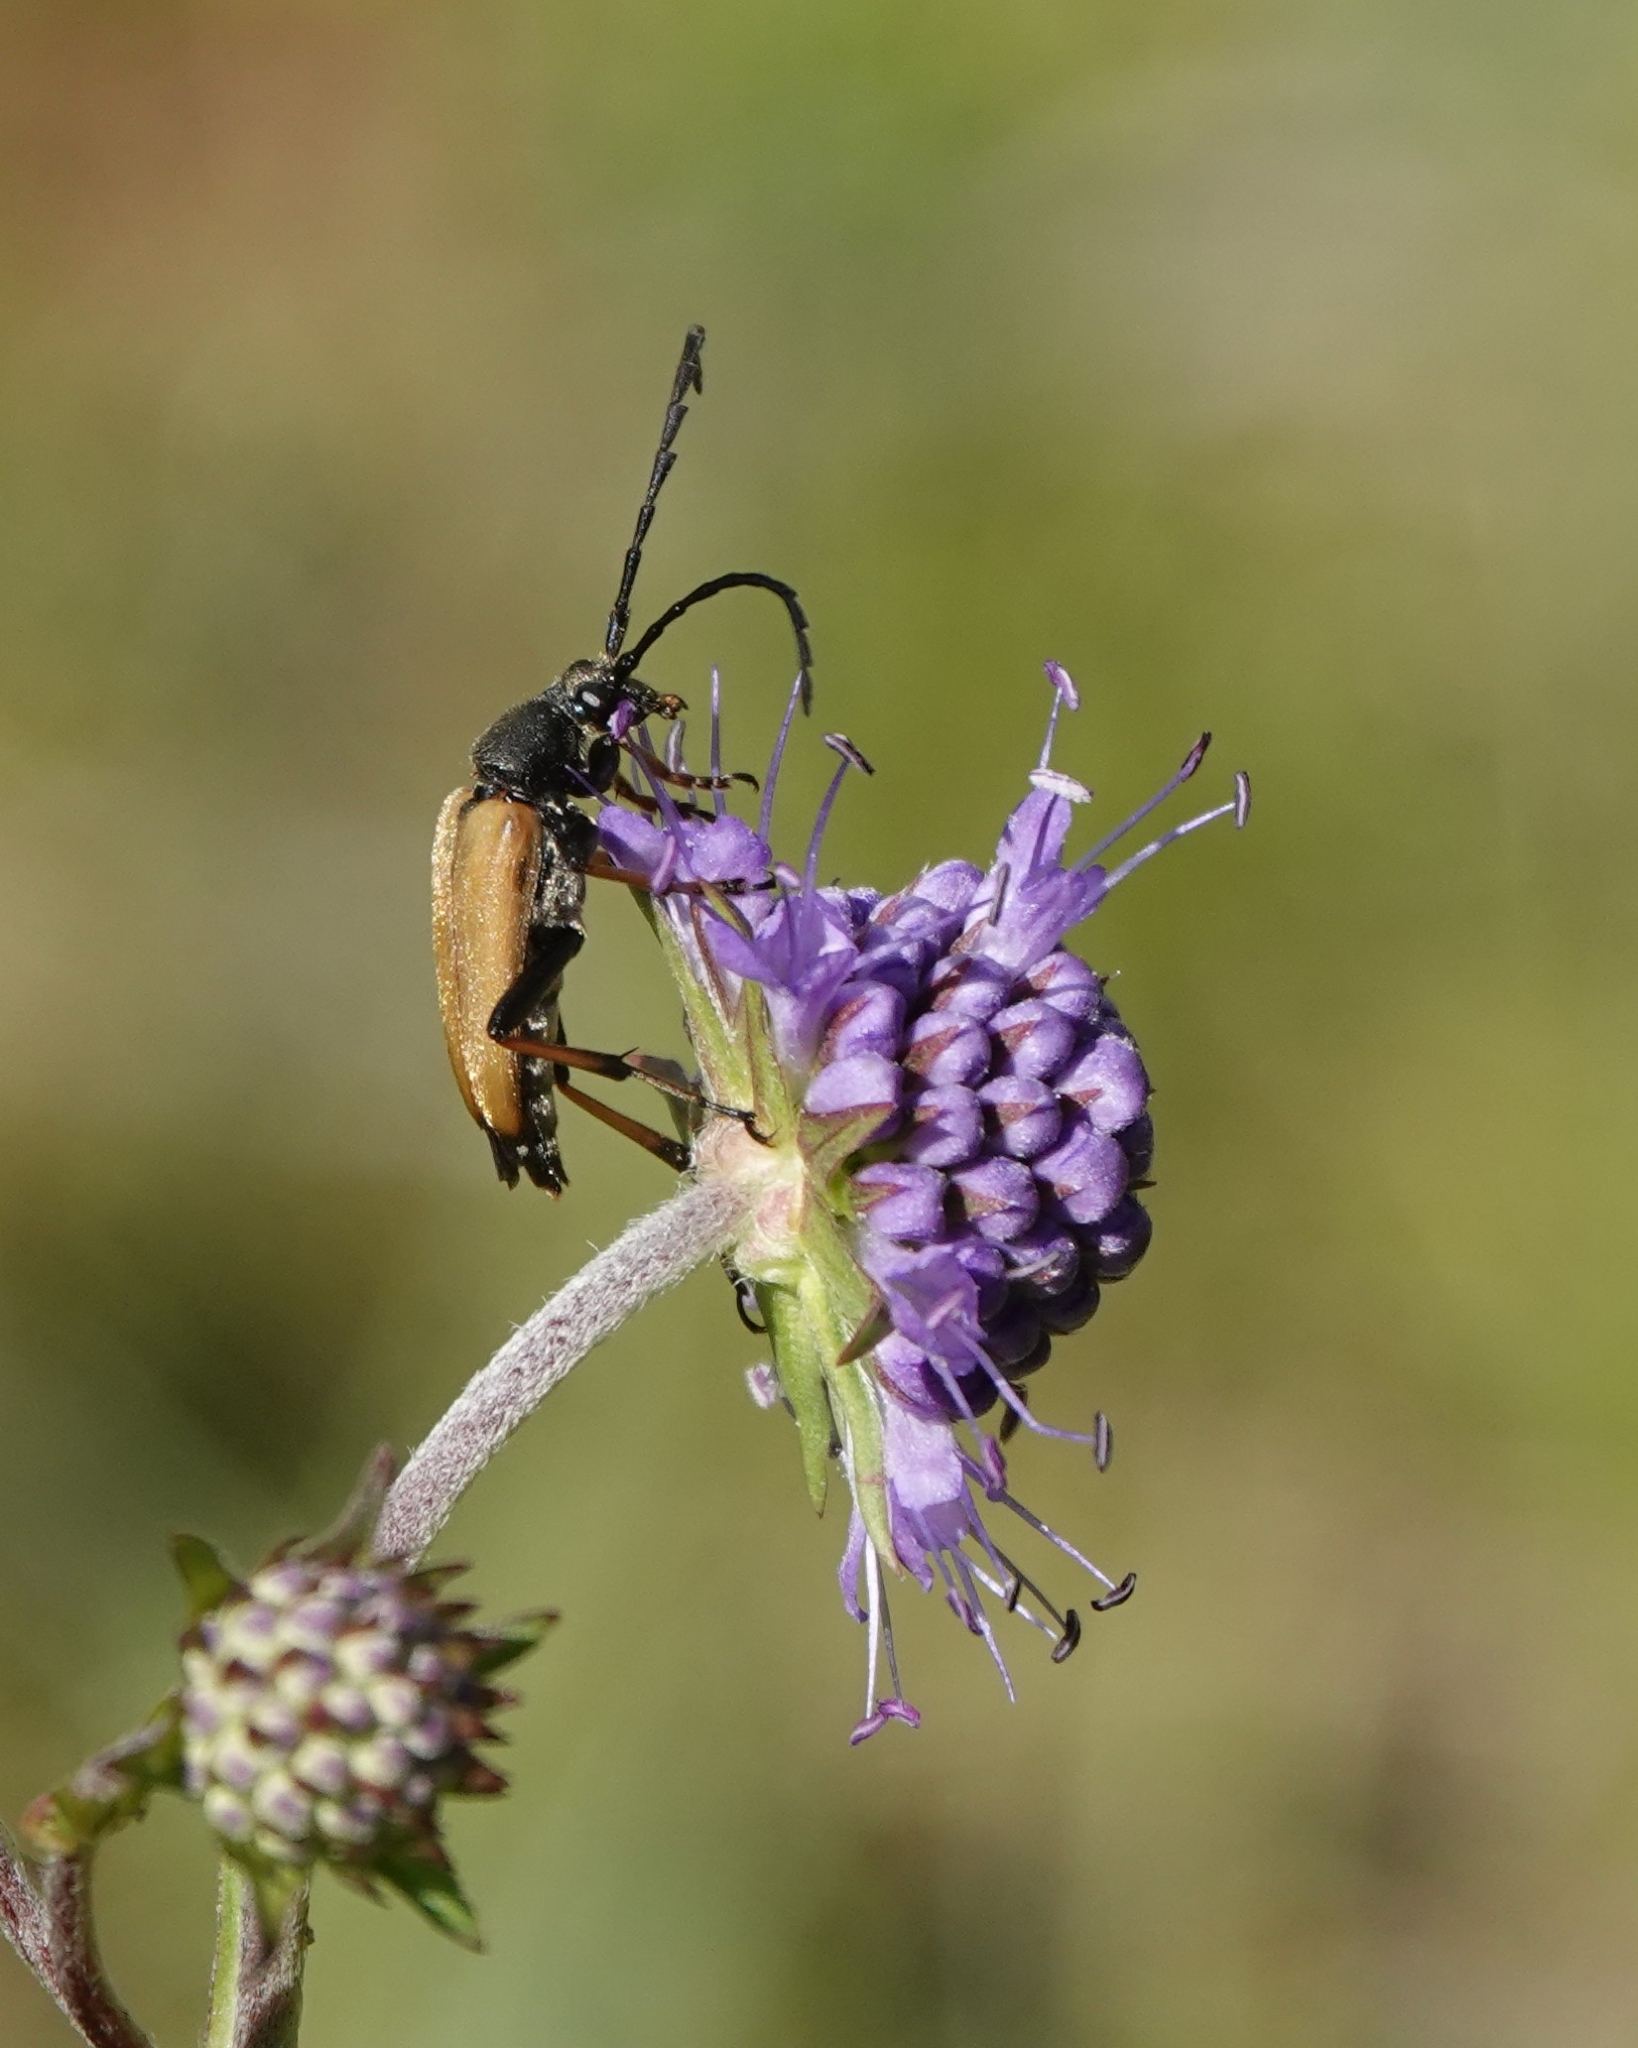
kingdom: Animalia
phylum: Arthropoda
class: Insecta
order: Coleoptera
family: Cerambycidae
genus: Stictoleptura
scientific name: Stictoleptura rubra
